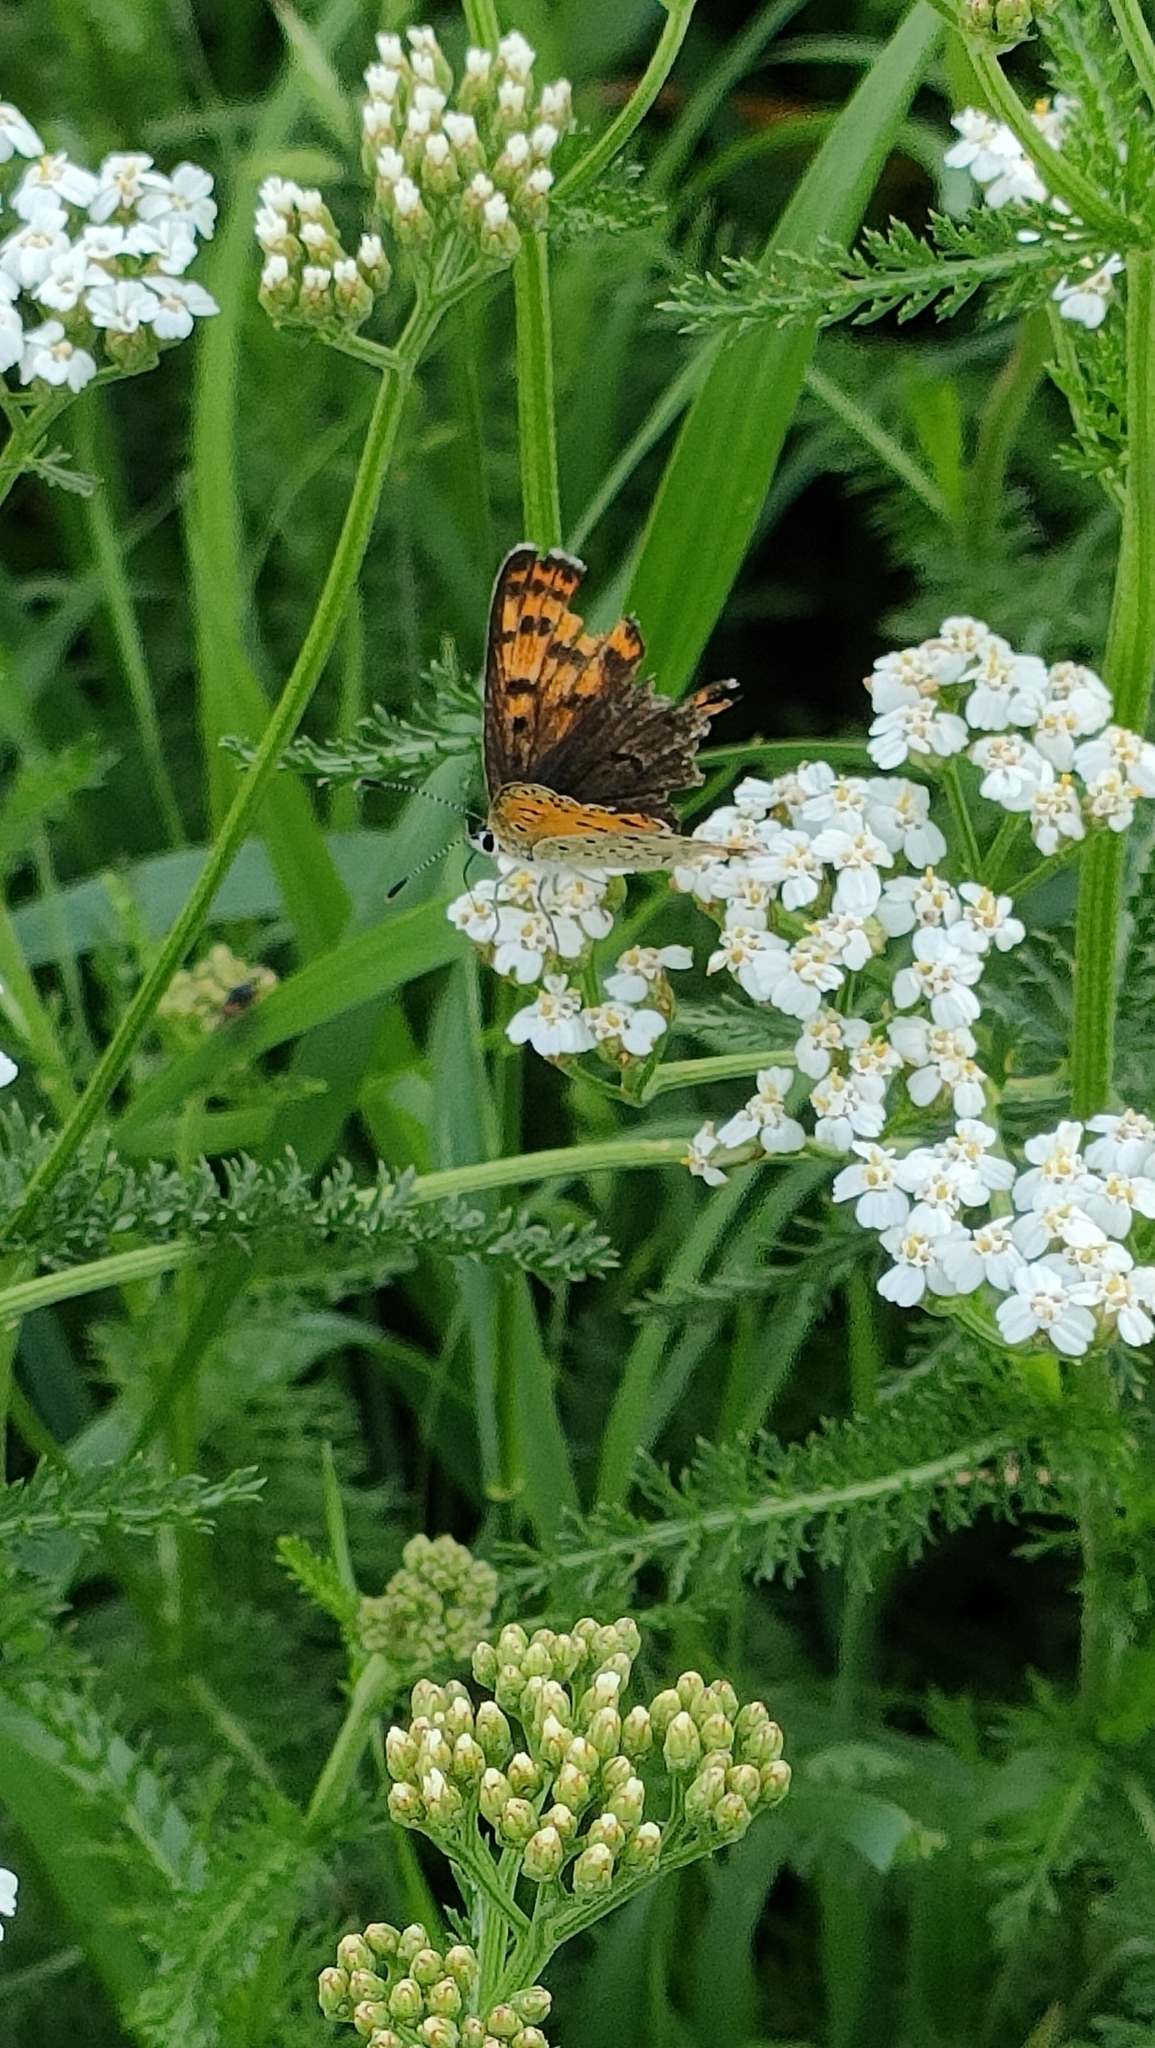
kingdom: Animalia
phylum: Arthropoda
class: Insecta
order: Lepidoptera
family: Lycaenidae
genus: Loweia
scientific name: Loweia tityrus
